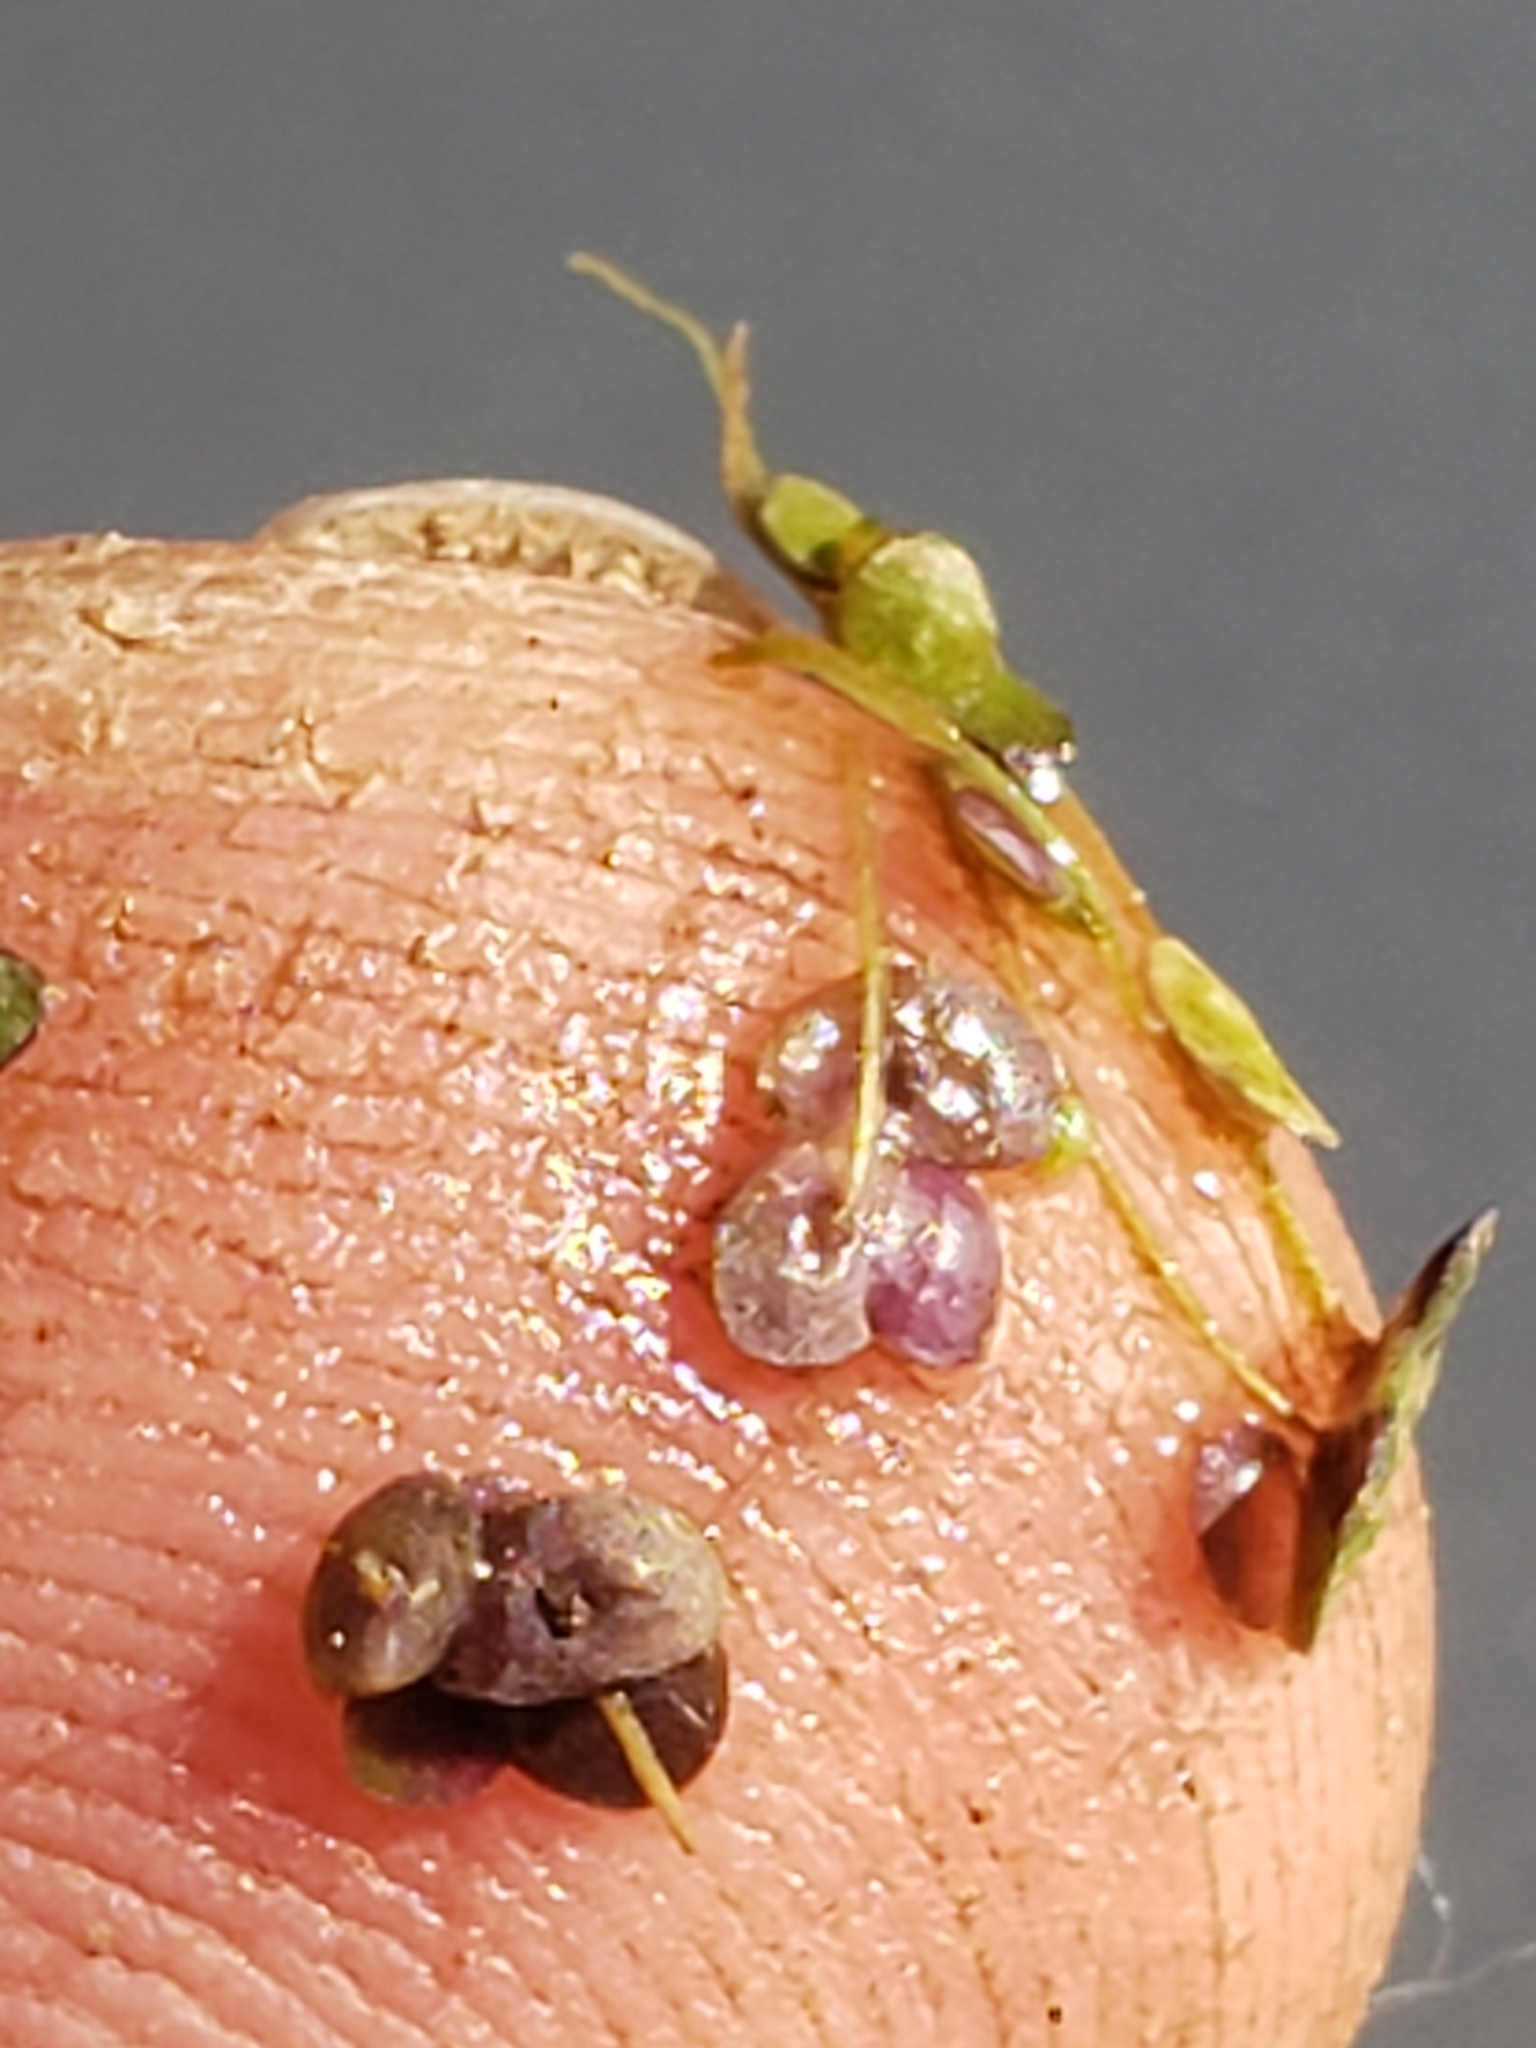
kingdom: Plantae
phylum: Tracheophyta
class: Liliopsida
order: Alismatales
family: Araceae
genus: Lemna
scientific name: Lemna minor
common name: Common duckweed
